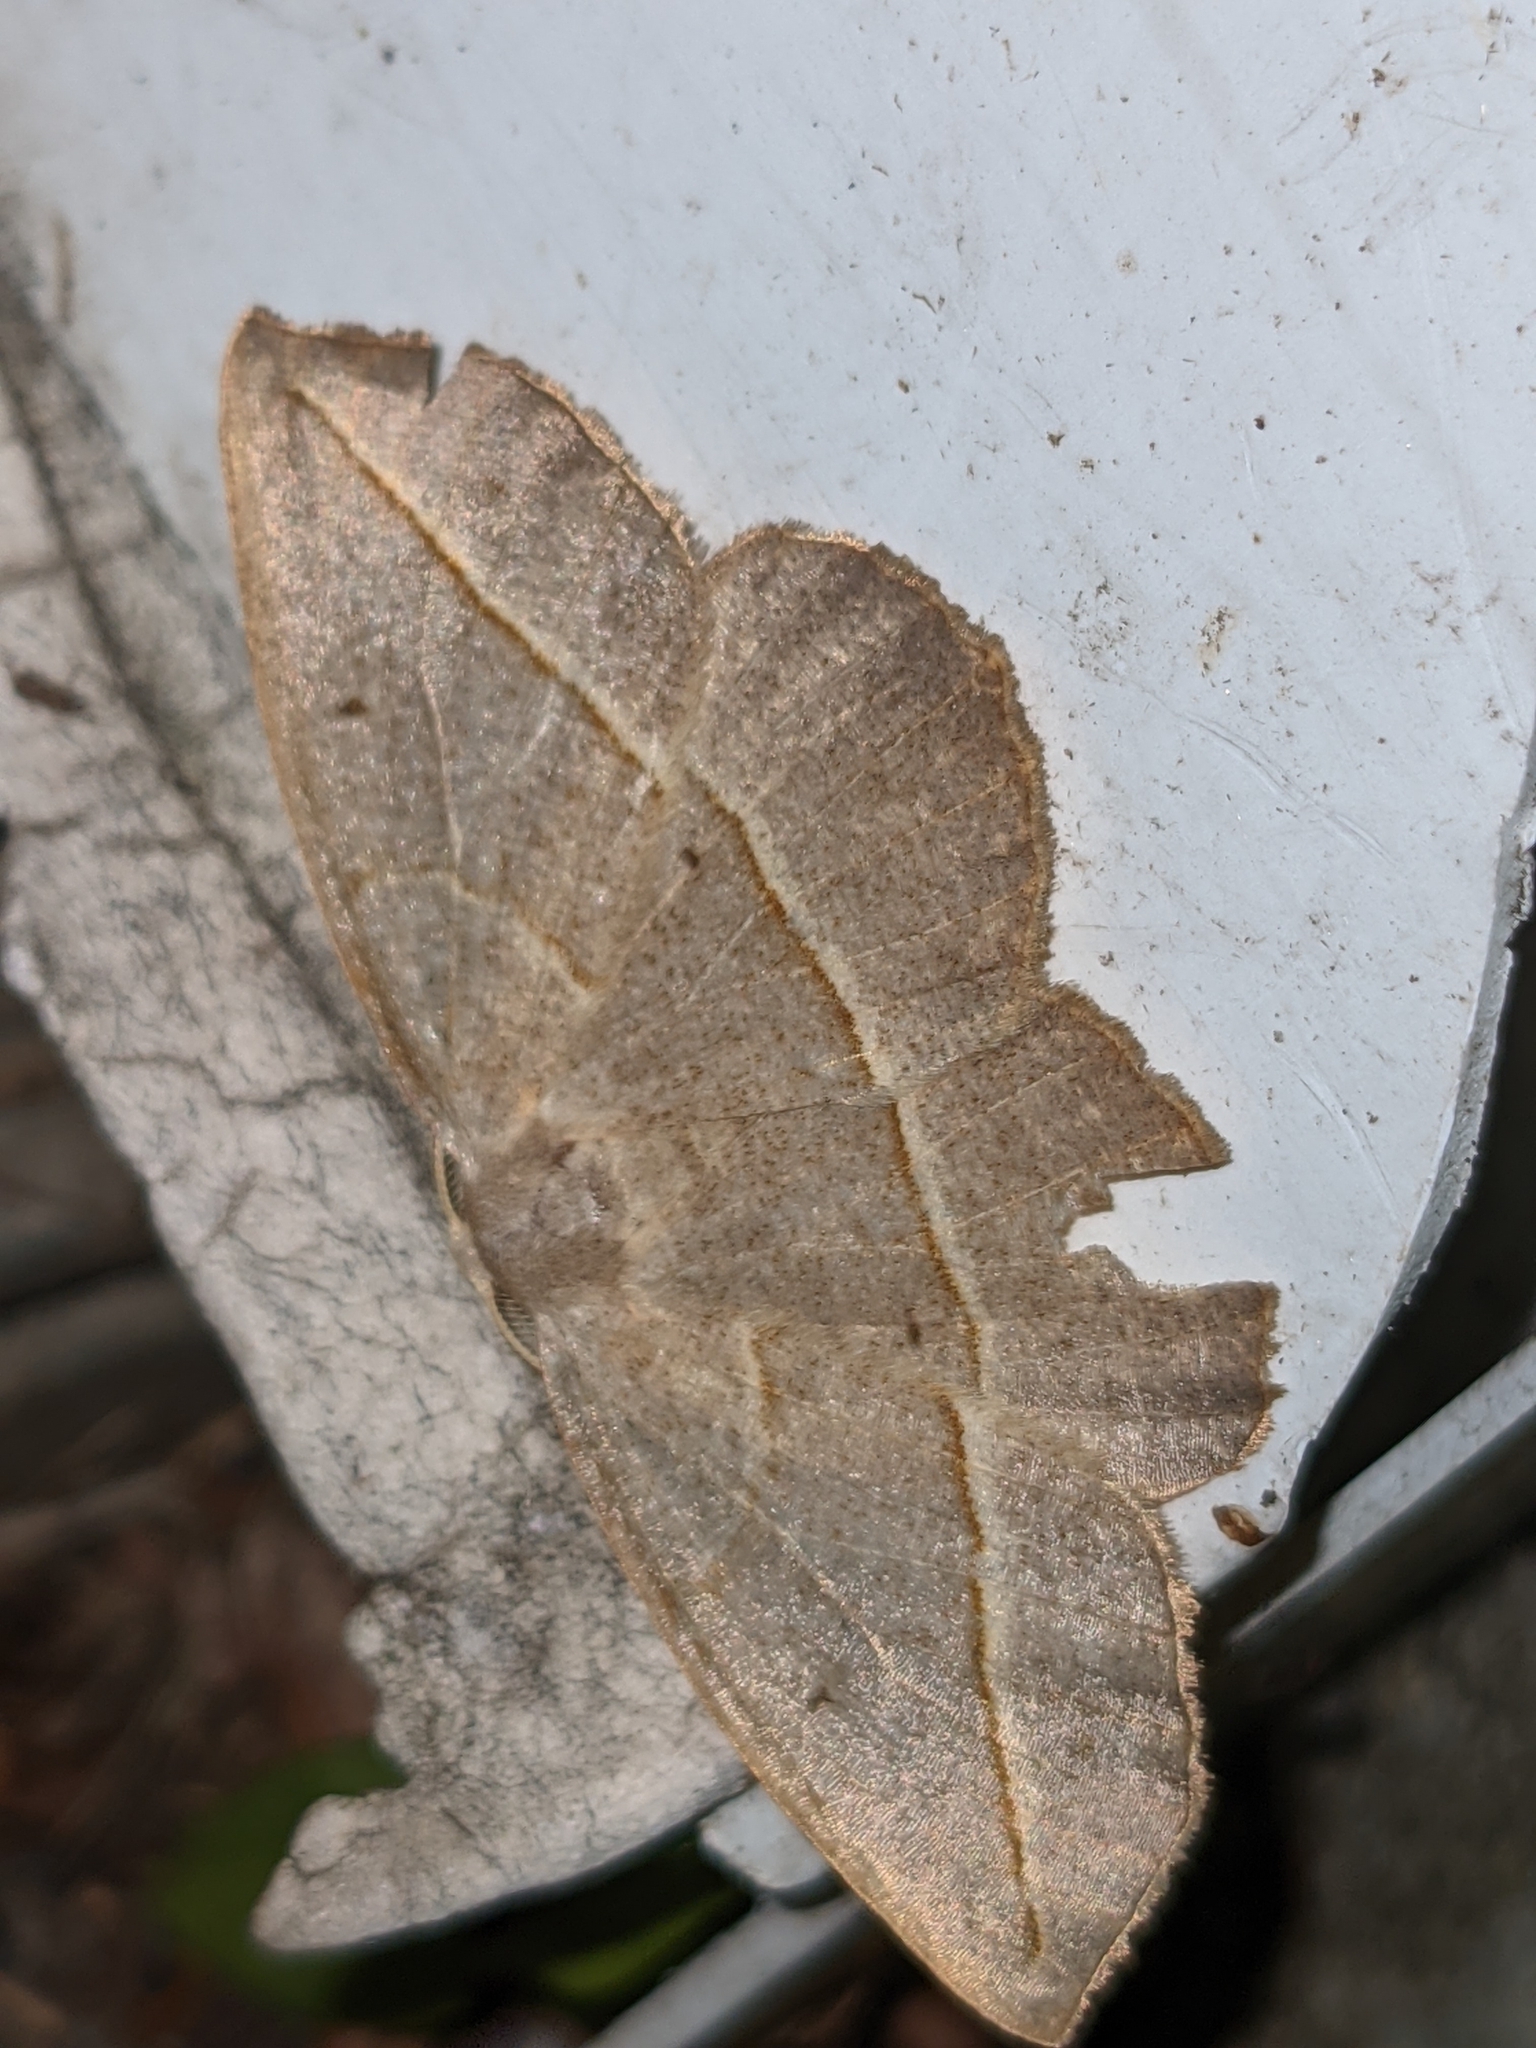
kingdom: Animalia
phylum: Arthropoda
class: Insecta
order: Lepidoptera
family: Geometridae
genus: Eusarca
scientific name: Eusarca confusaria
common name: Confused eusarca
